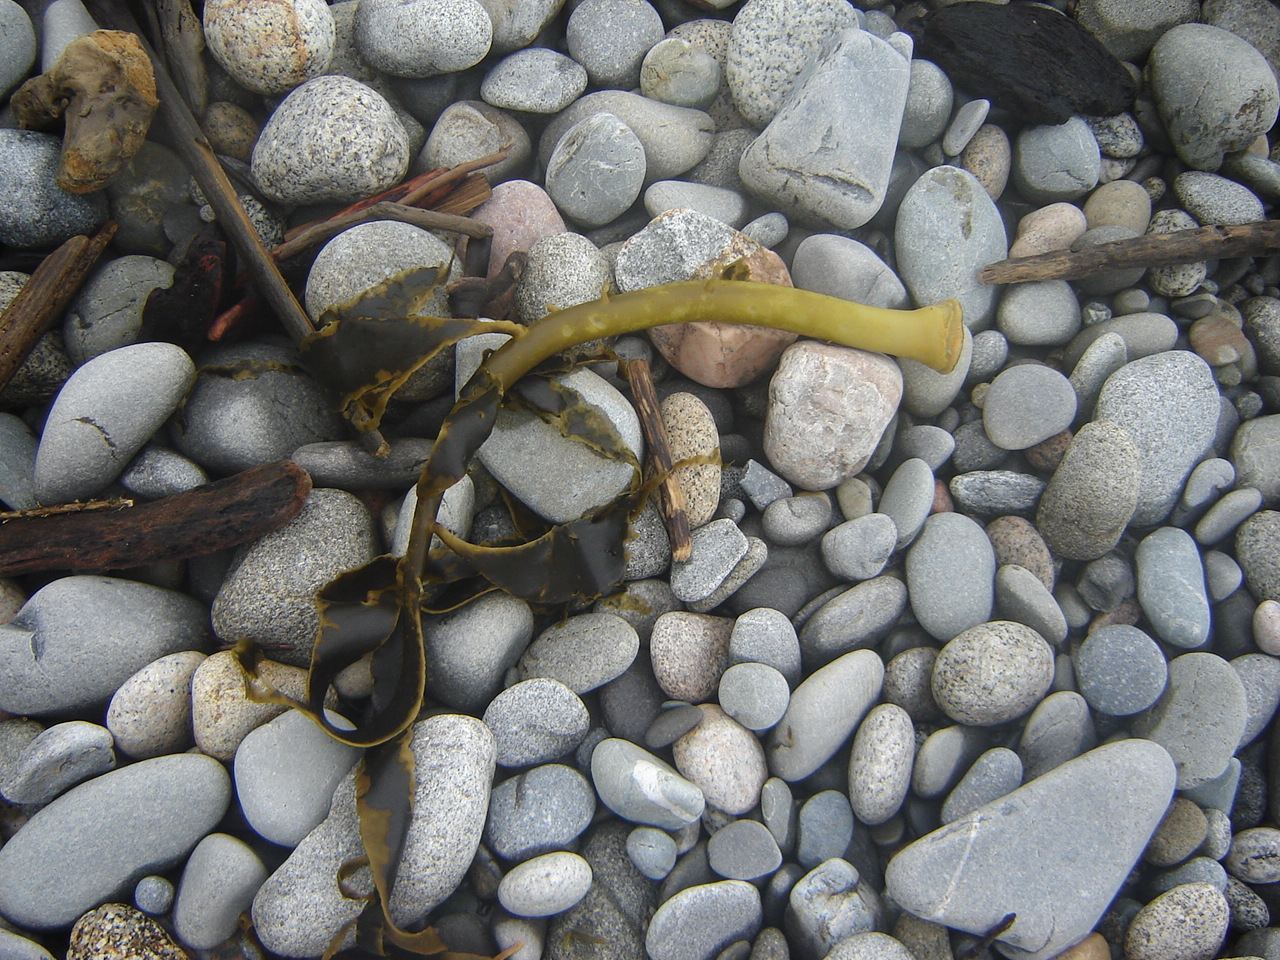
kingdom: Chromista
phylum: Ochrophyta
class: Phaeophyceae
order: Fucales
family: Durvillaeaceae
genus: Durvillaea
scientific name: Durvillaea willana
